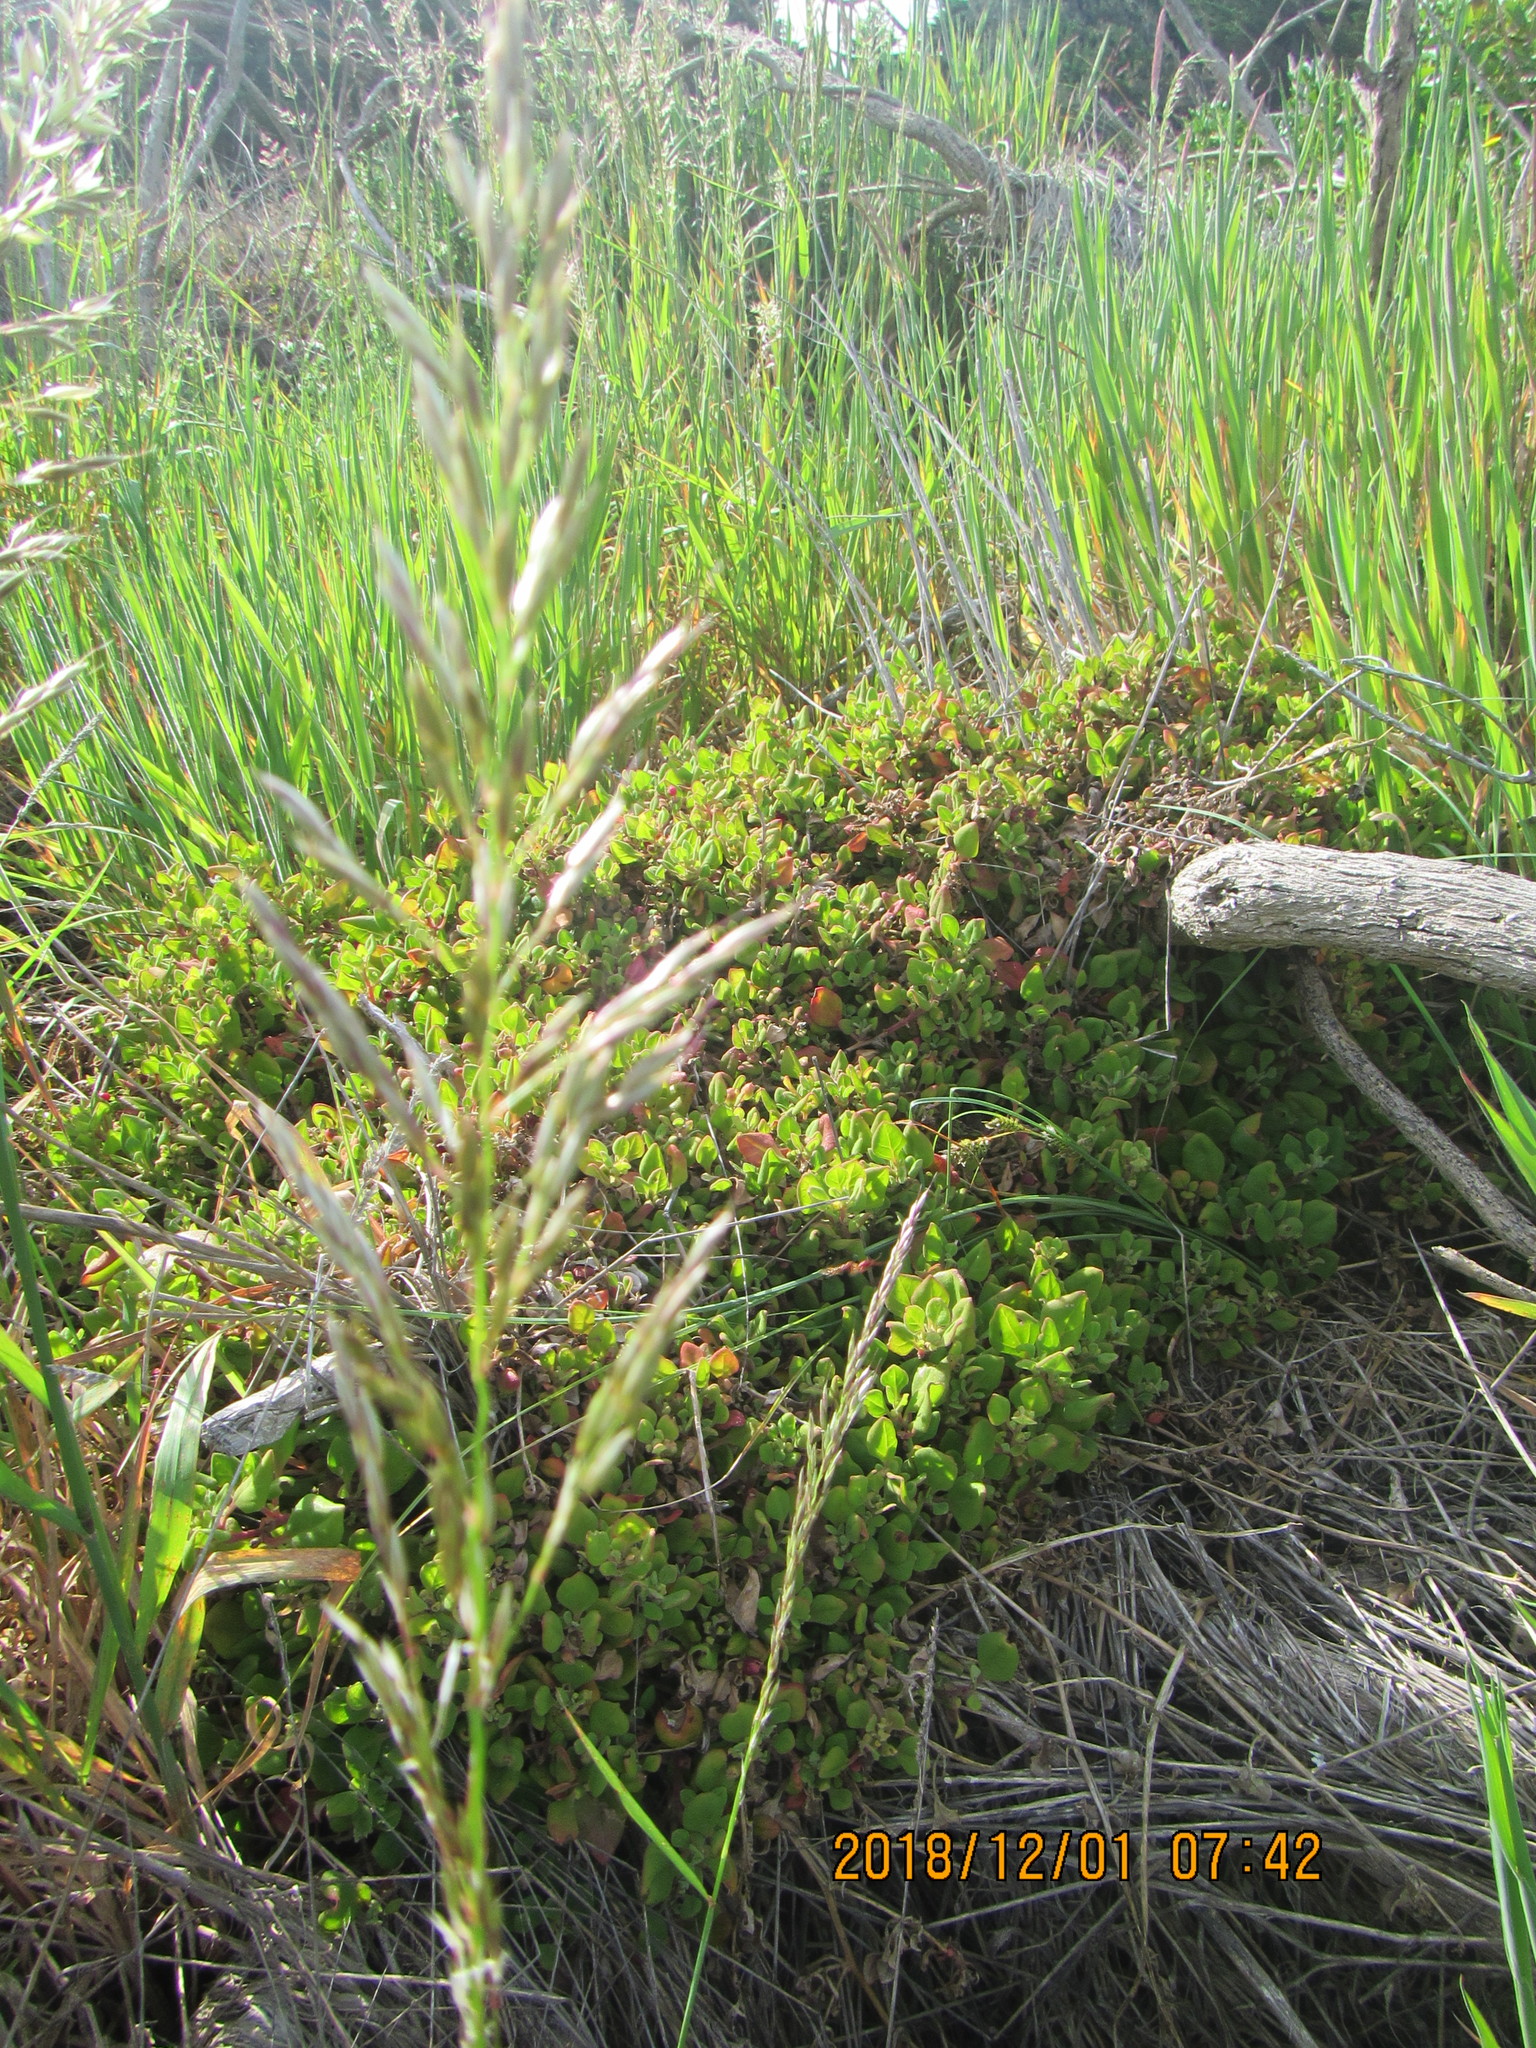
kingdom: Plantae
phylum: Tracheophyta
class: Magnoliopsida
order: Caryophyllales
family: Aizoaceae
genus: Tetragonia
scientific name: Tetragonia implexicoma
